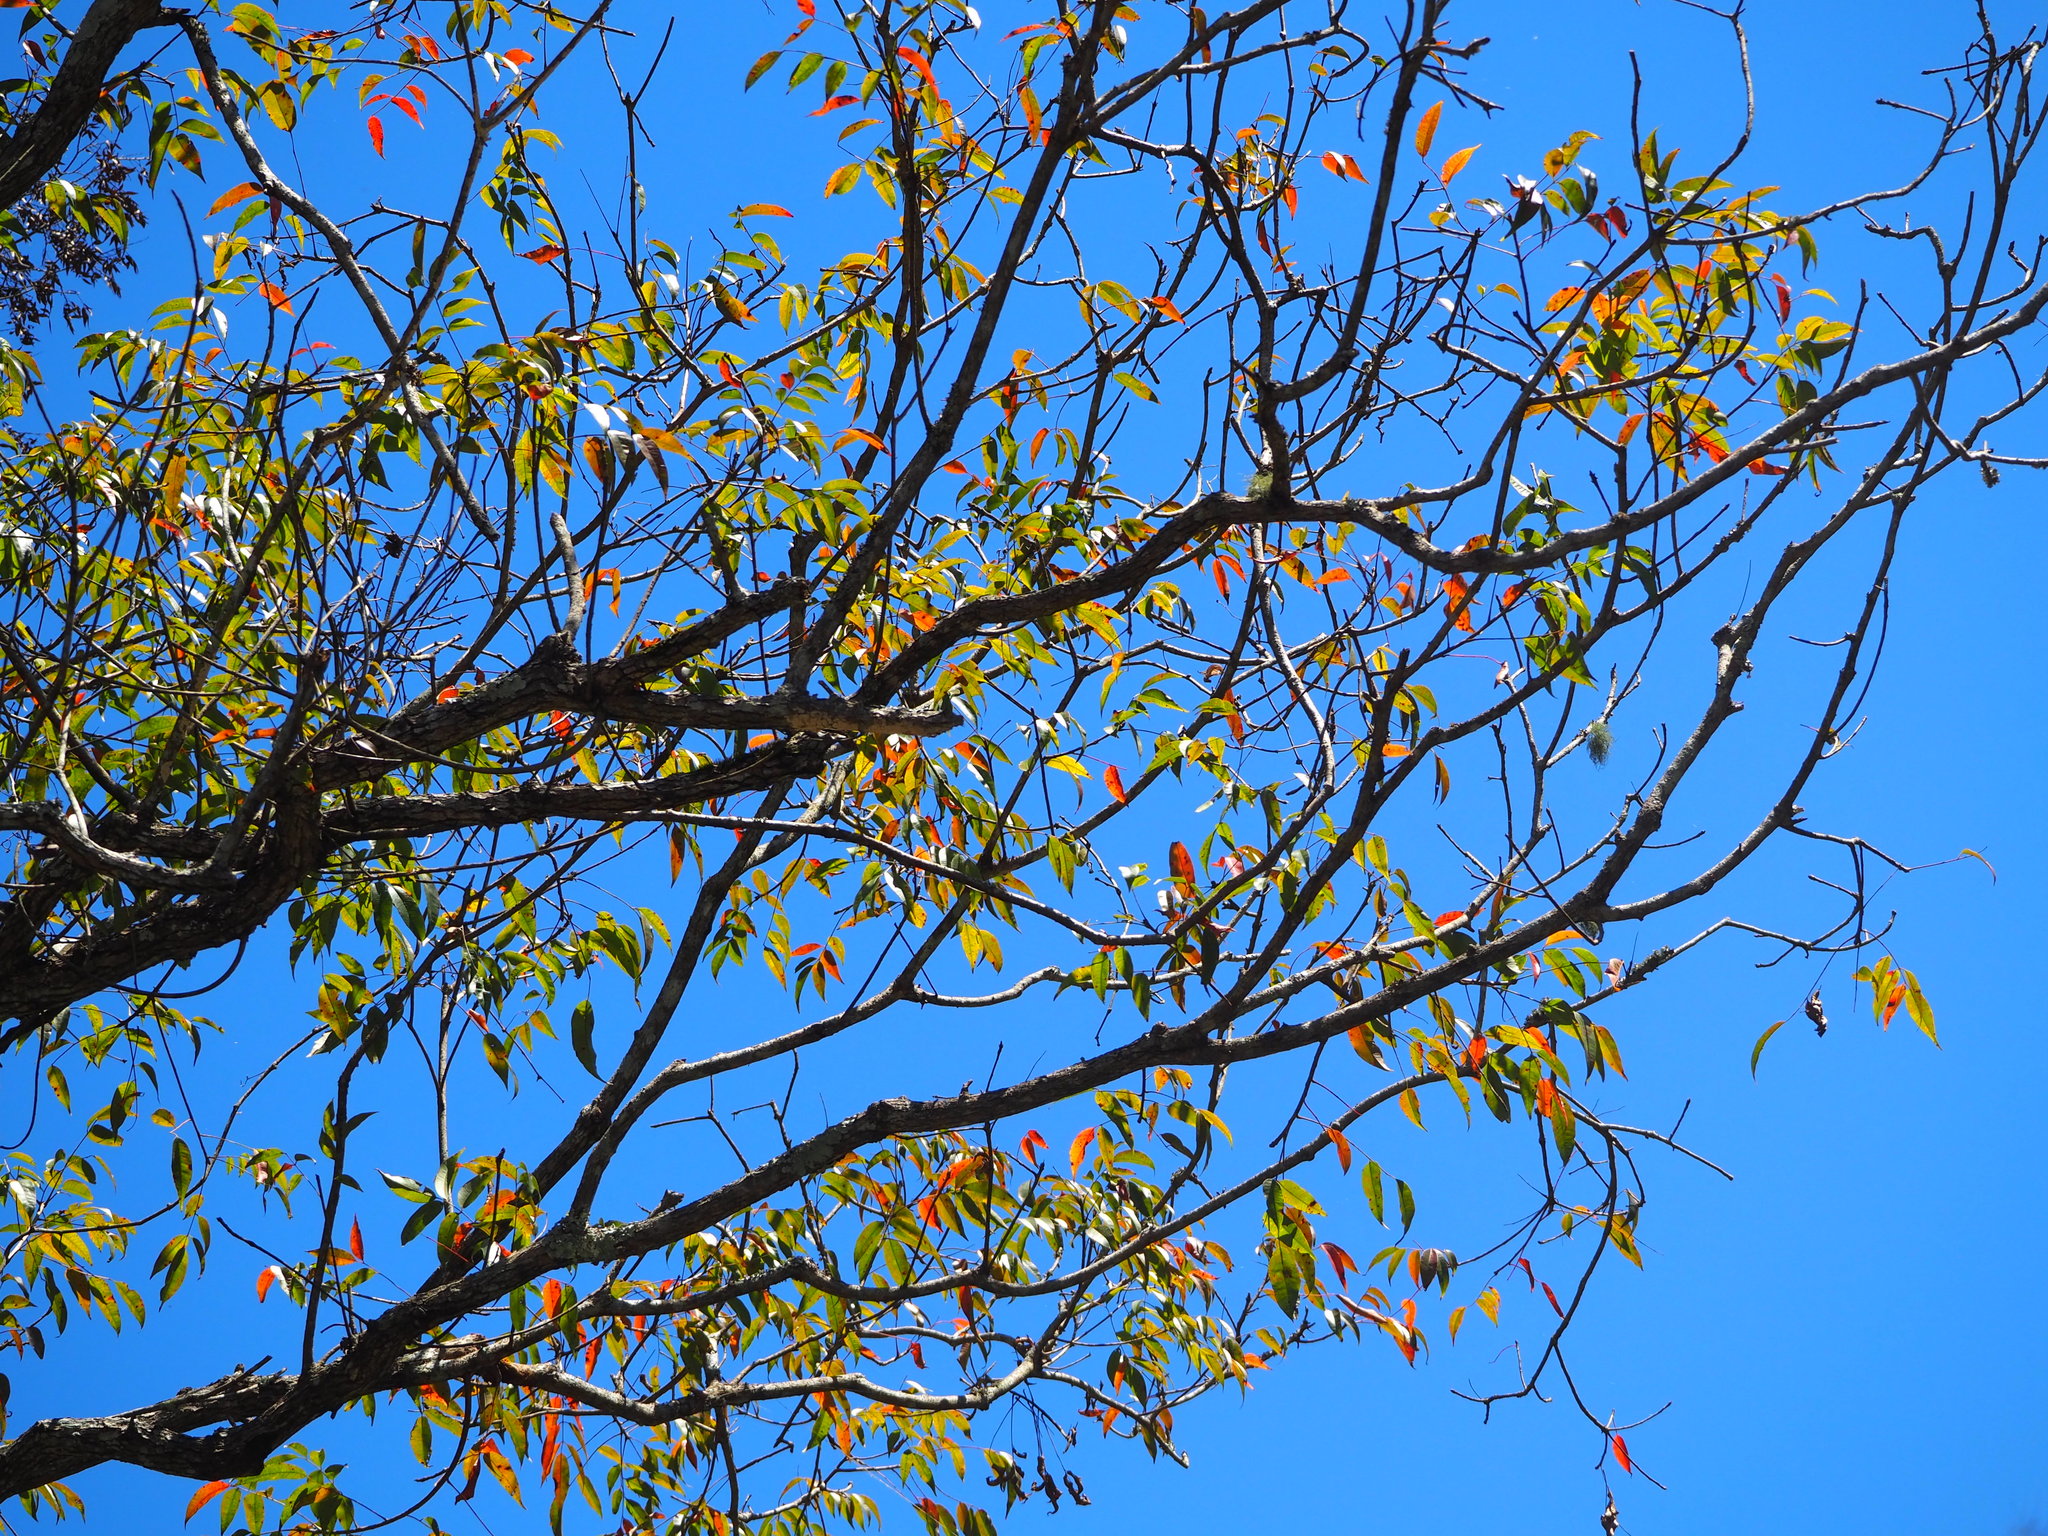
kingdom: Plantae
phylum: Tracheophyta
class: Magnoliopsida
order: Sapindales
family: Anacardiaceae
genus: Toxicodendron
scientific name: Toxicodendron succedaneum
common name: Wax tree
